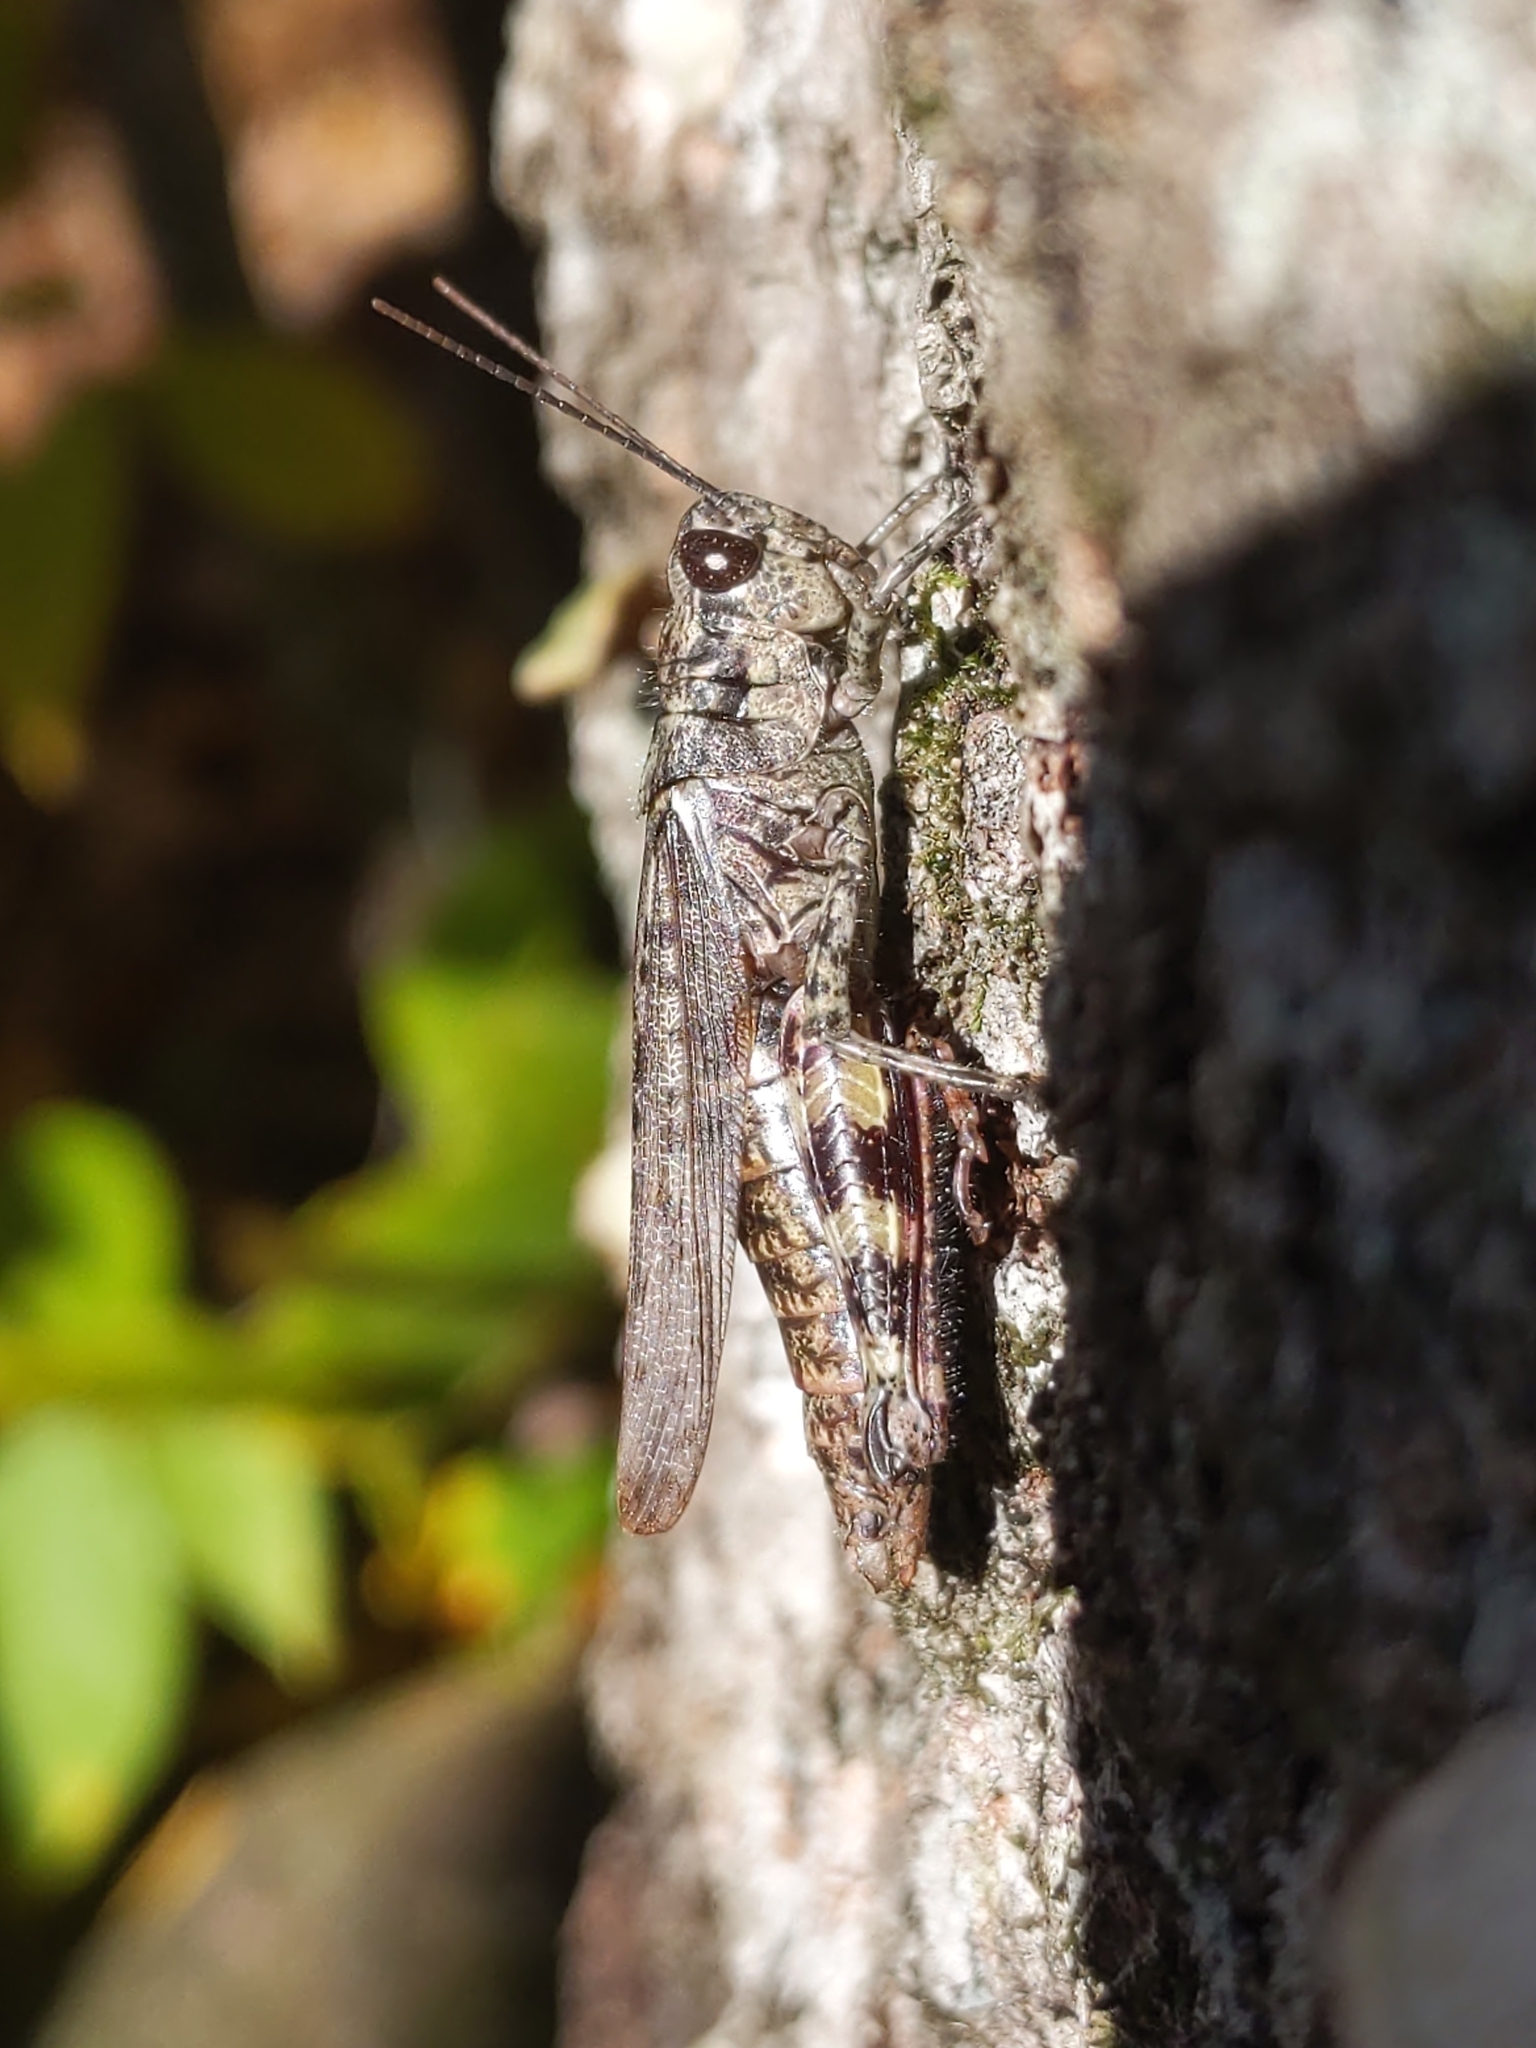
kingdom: Animalia
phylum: Arthropoda
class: Insecta
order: Orthoptera
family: Acrididae
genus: Melanoplus
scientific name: Melanoplus punctulatus
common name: Pine-tree spur-throat grasshopper
